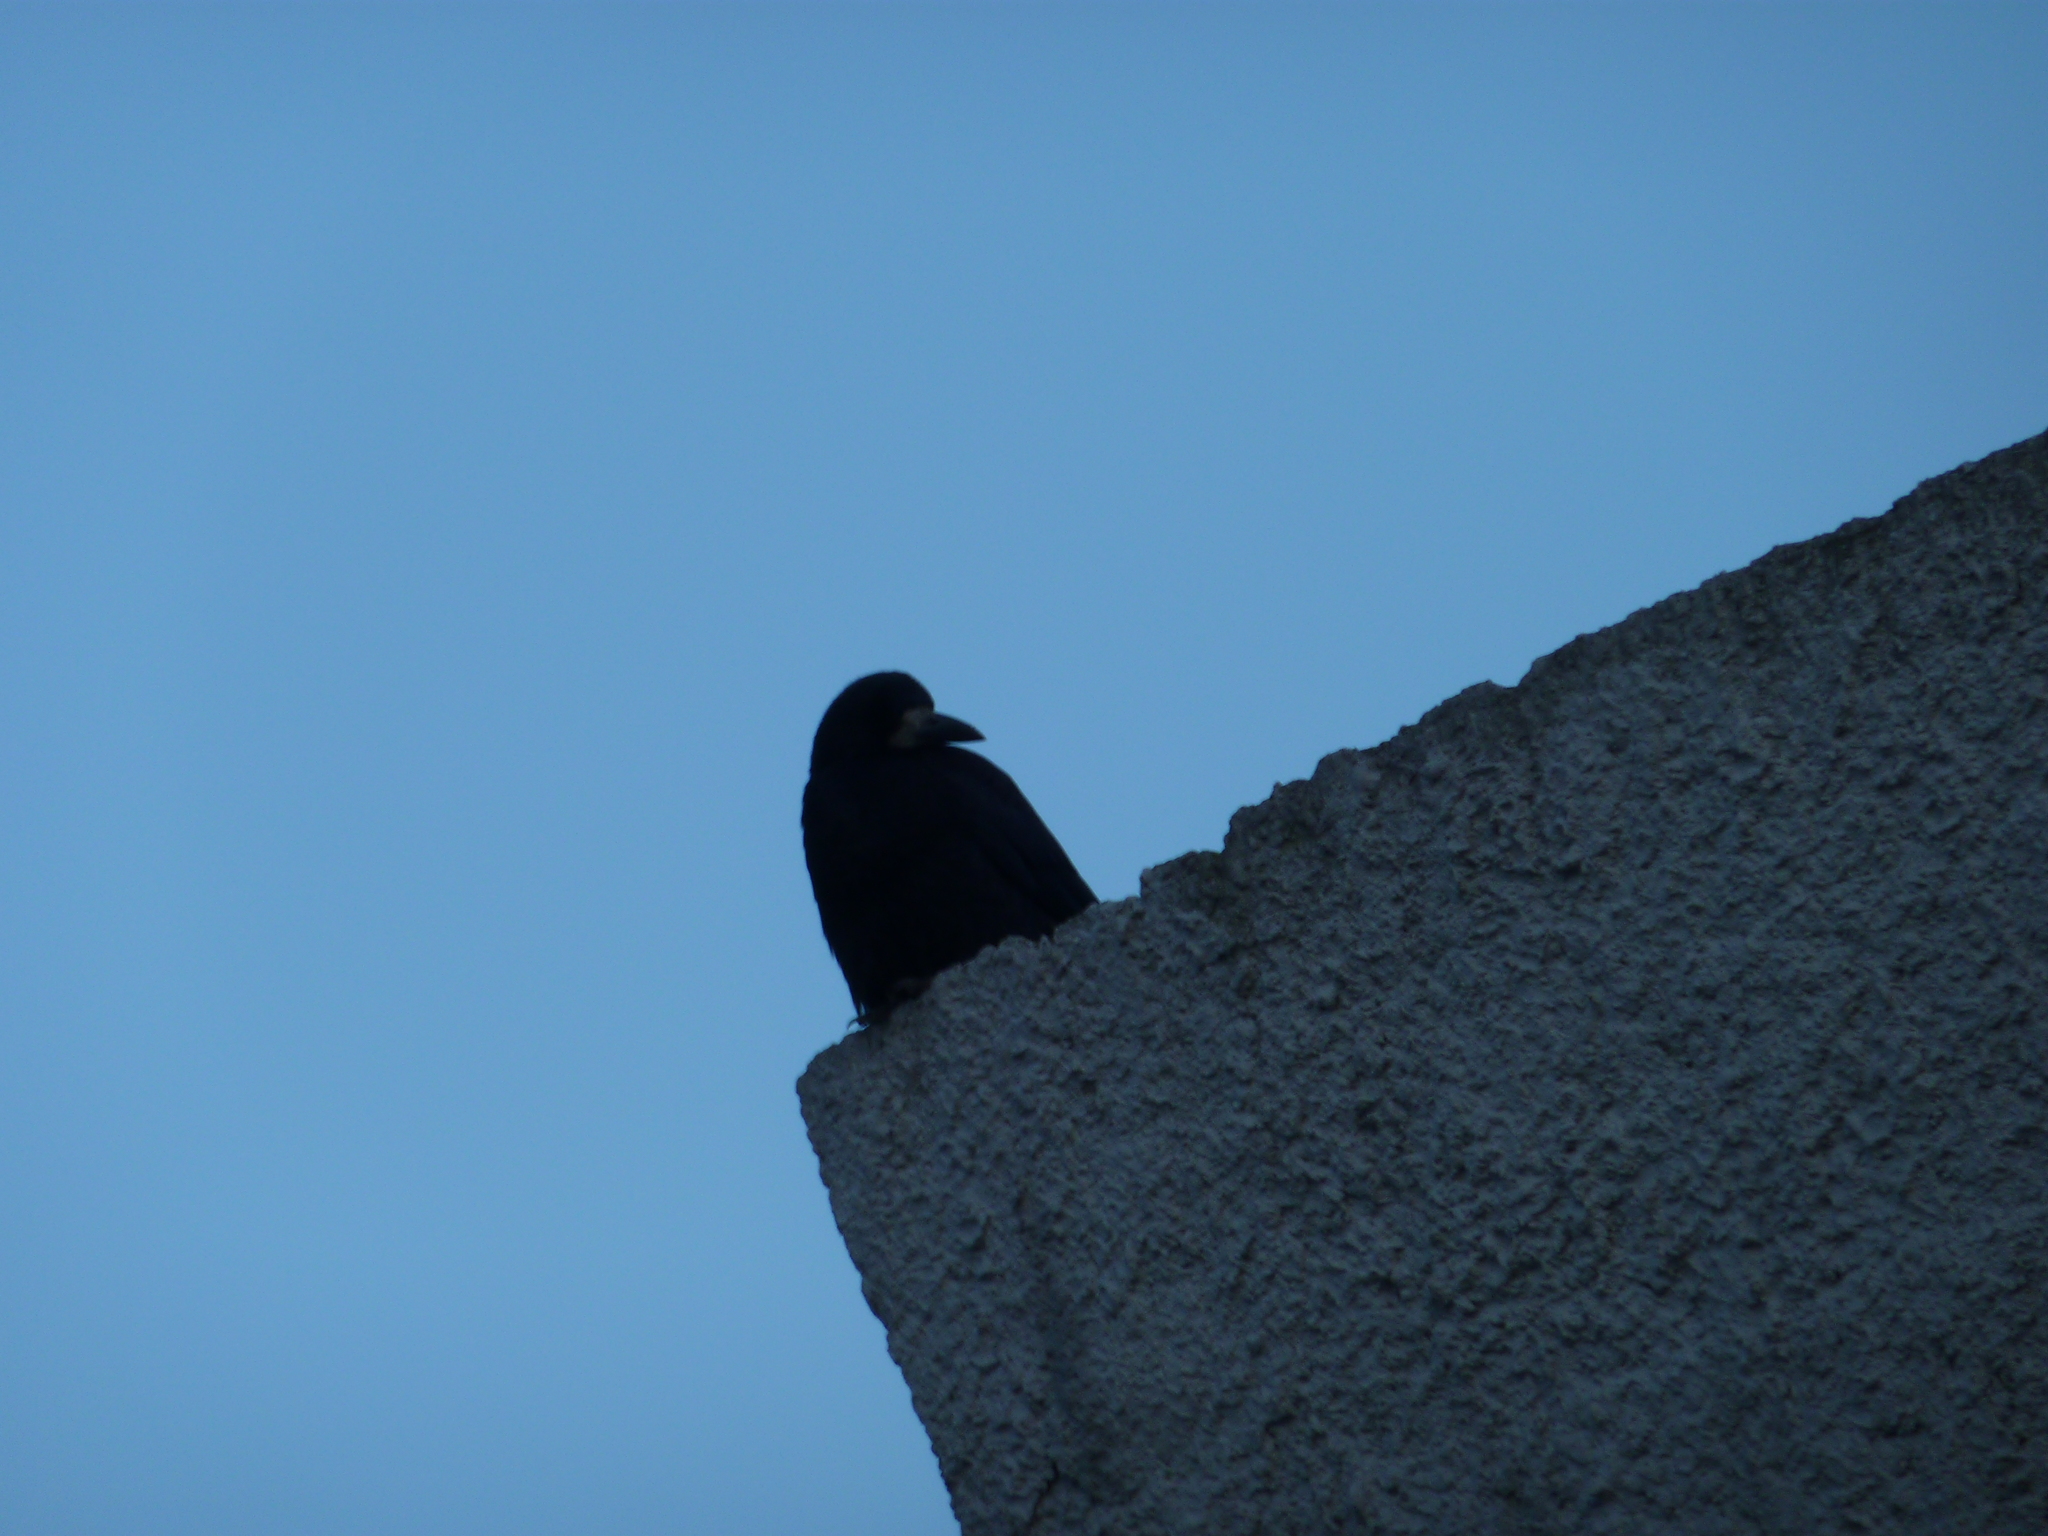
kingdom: Animalia
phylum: Chordata
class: Aves
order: Passeriformes
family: Corvidae
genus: Corvus
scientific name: Corvus frugilegus
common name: Rook
